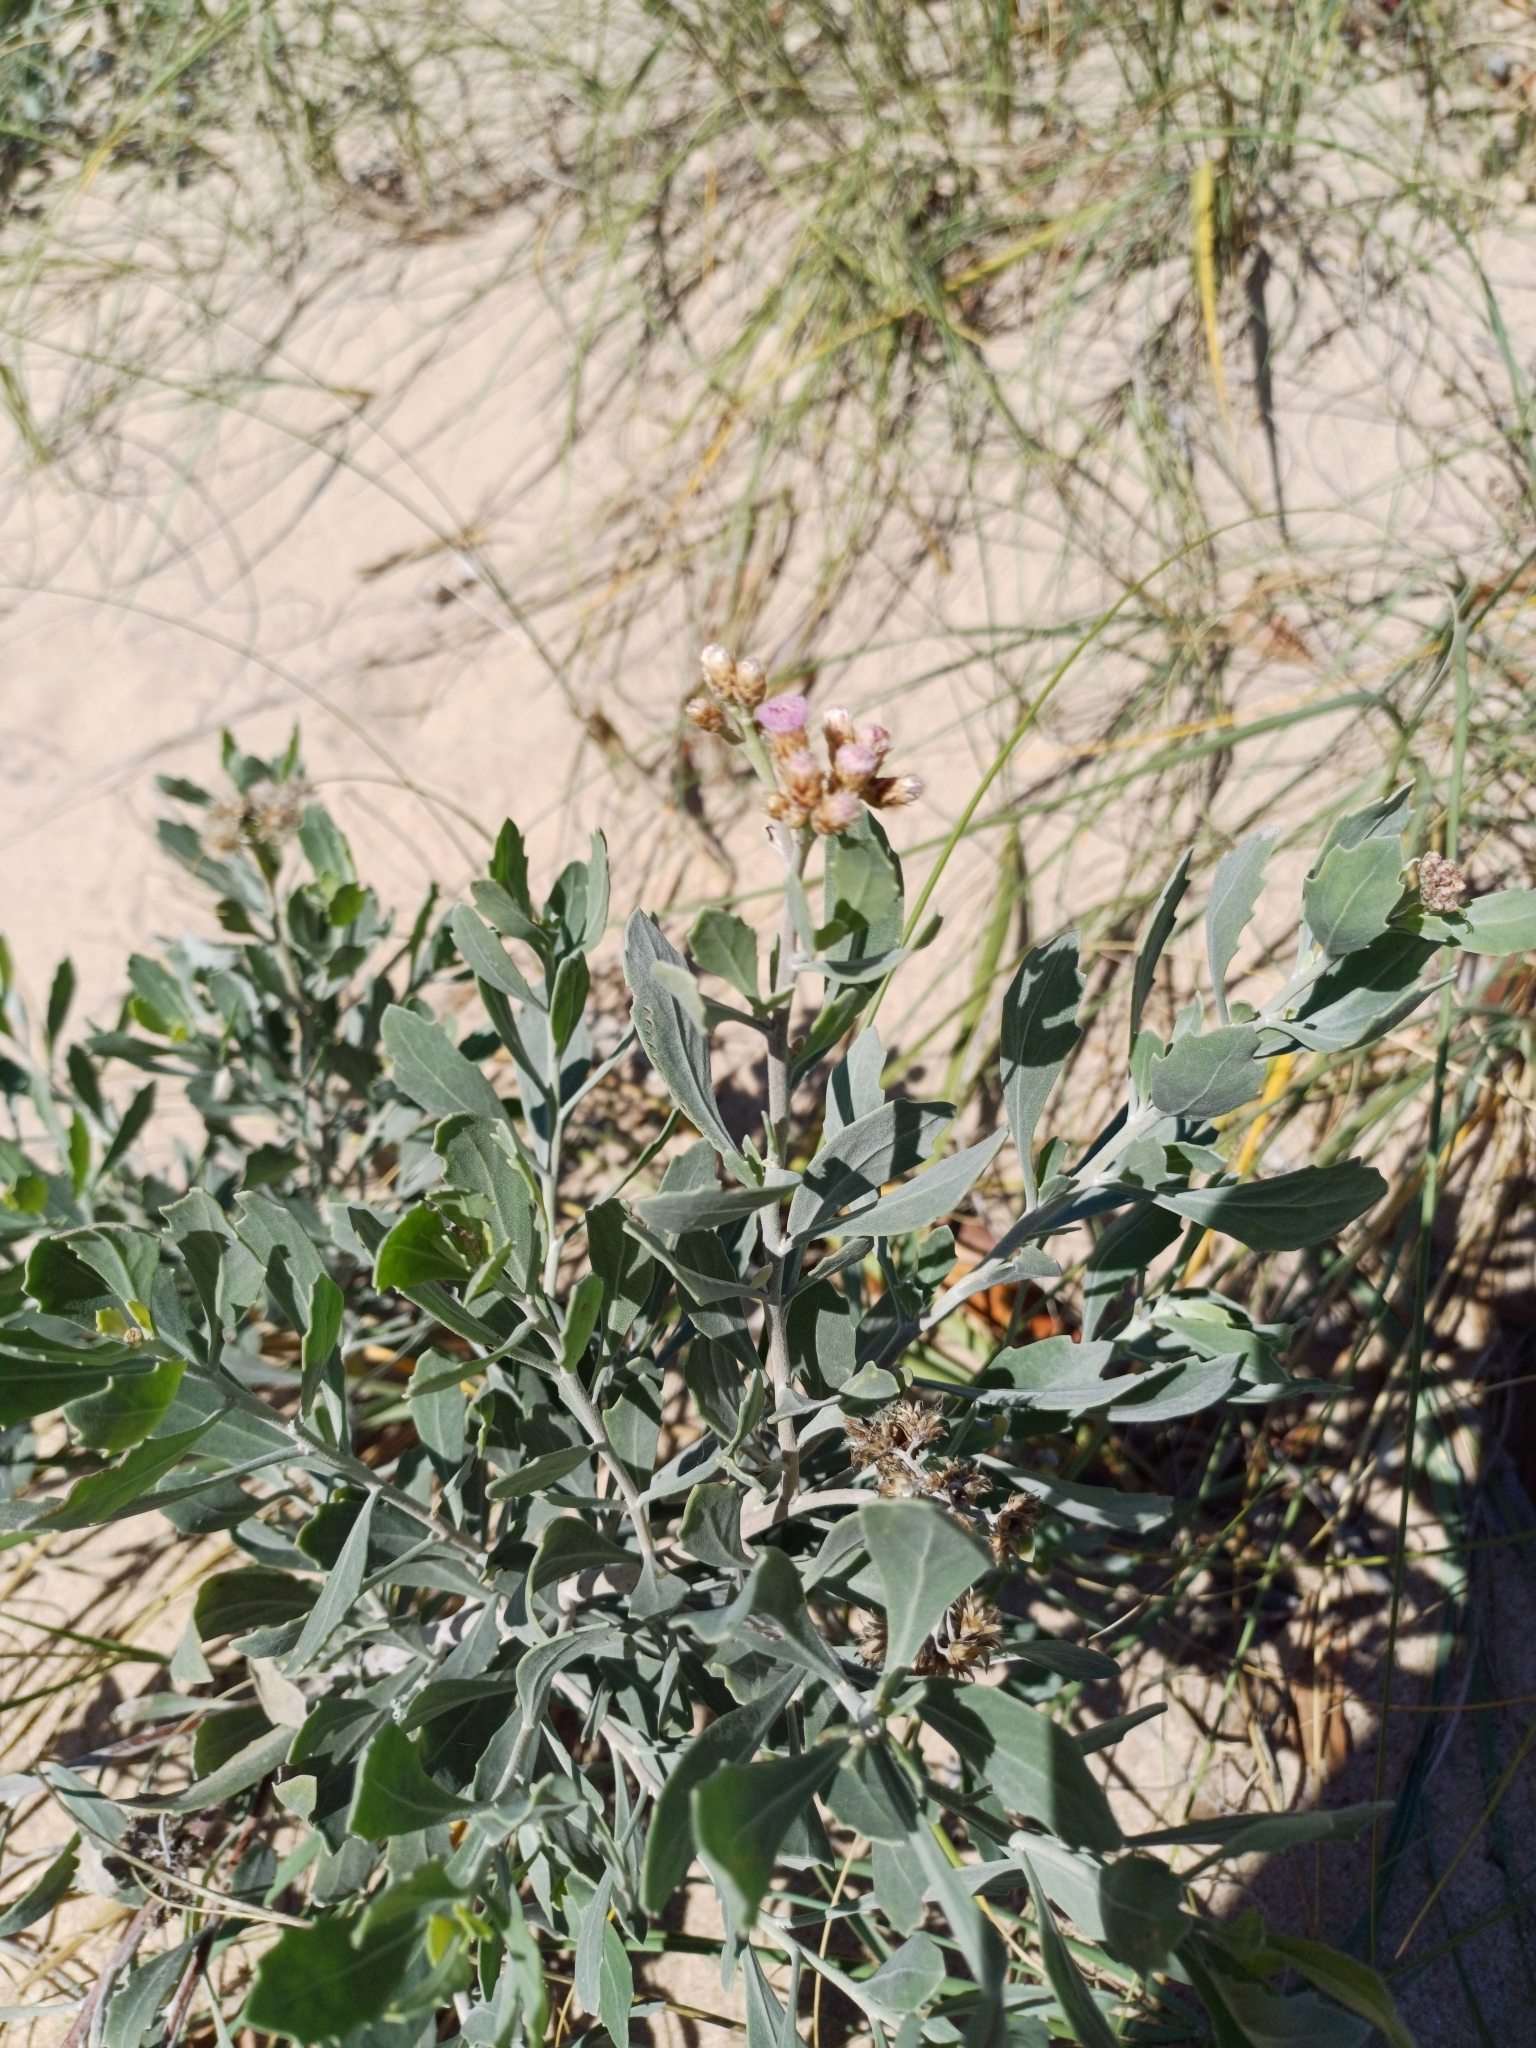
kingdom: Plantae
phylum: Tracheophyta
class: Magnoliopsida
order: Asterales
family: Asteraceae
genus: Tessaria
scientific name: Tessaria absinthioides
